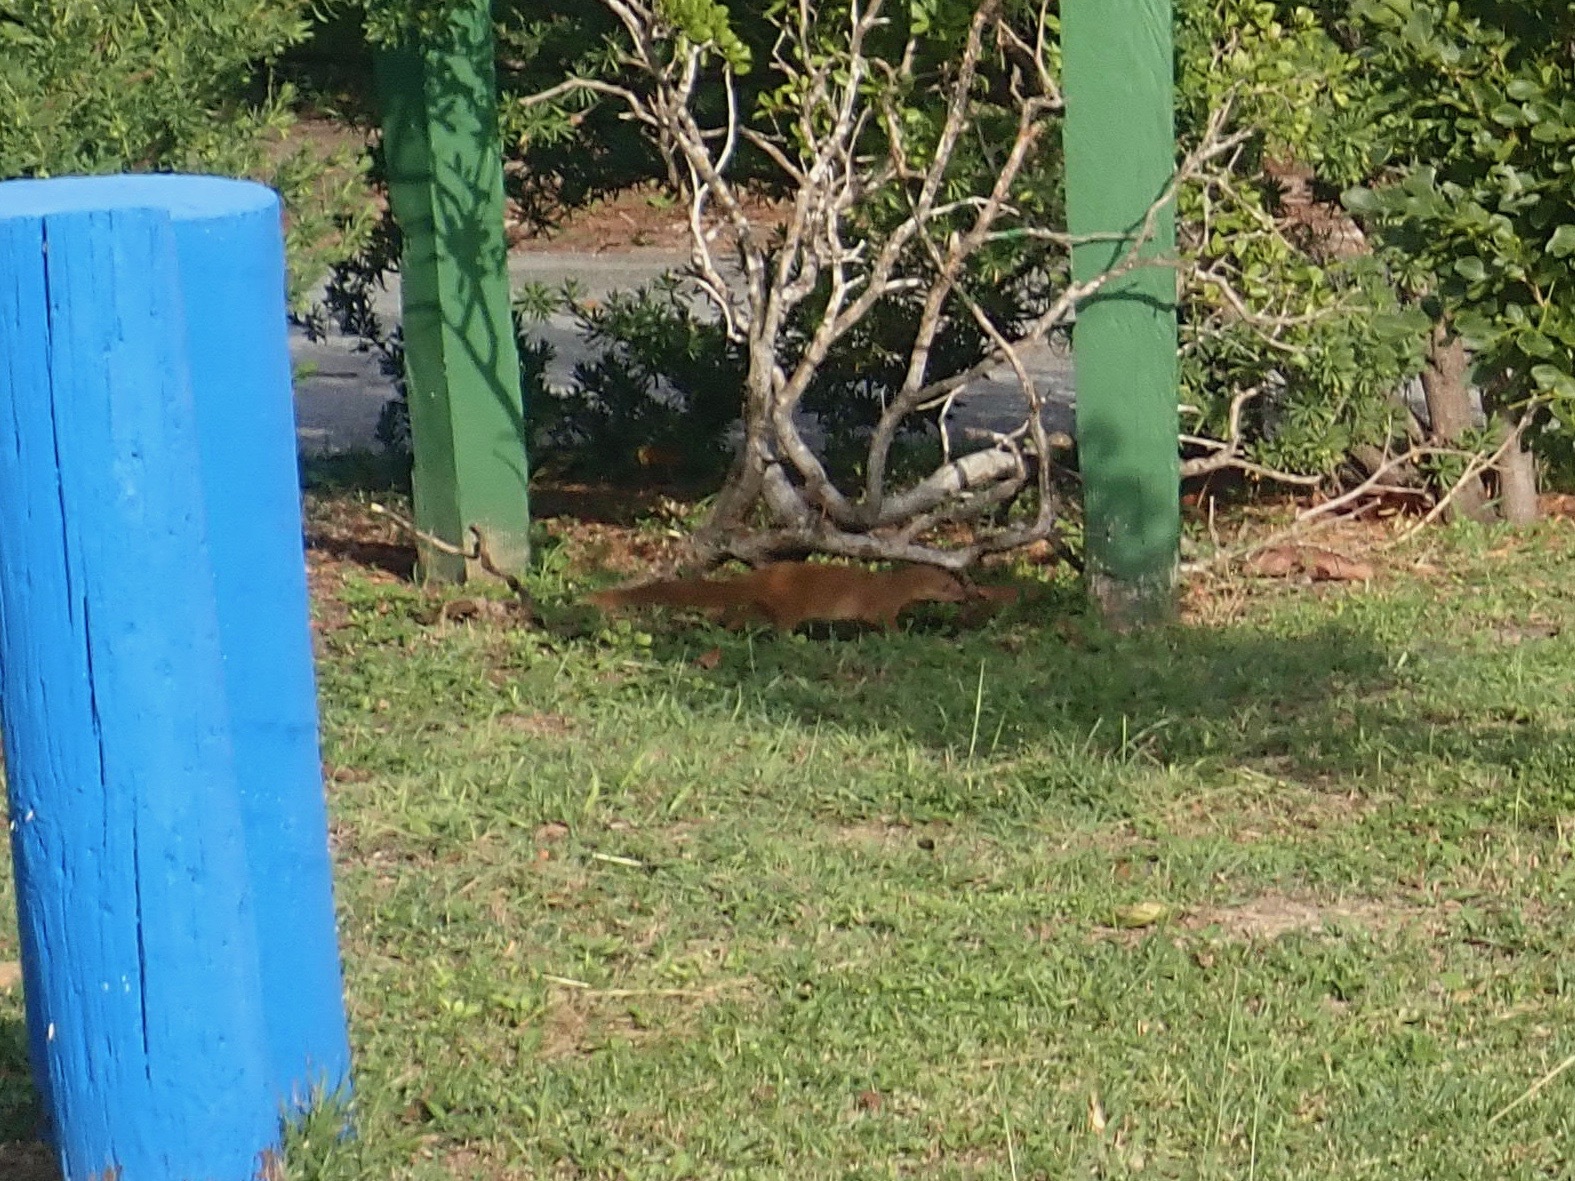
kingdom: Animalia
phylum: Chordata
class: Mammalia
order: Carnivora
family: Herpestidae
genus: Herpestes
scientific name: Herpestes javanicus
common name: Small asian mongoose
